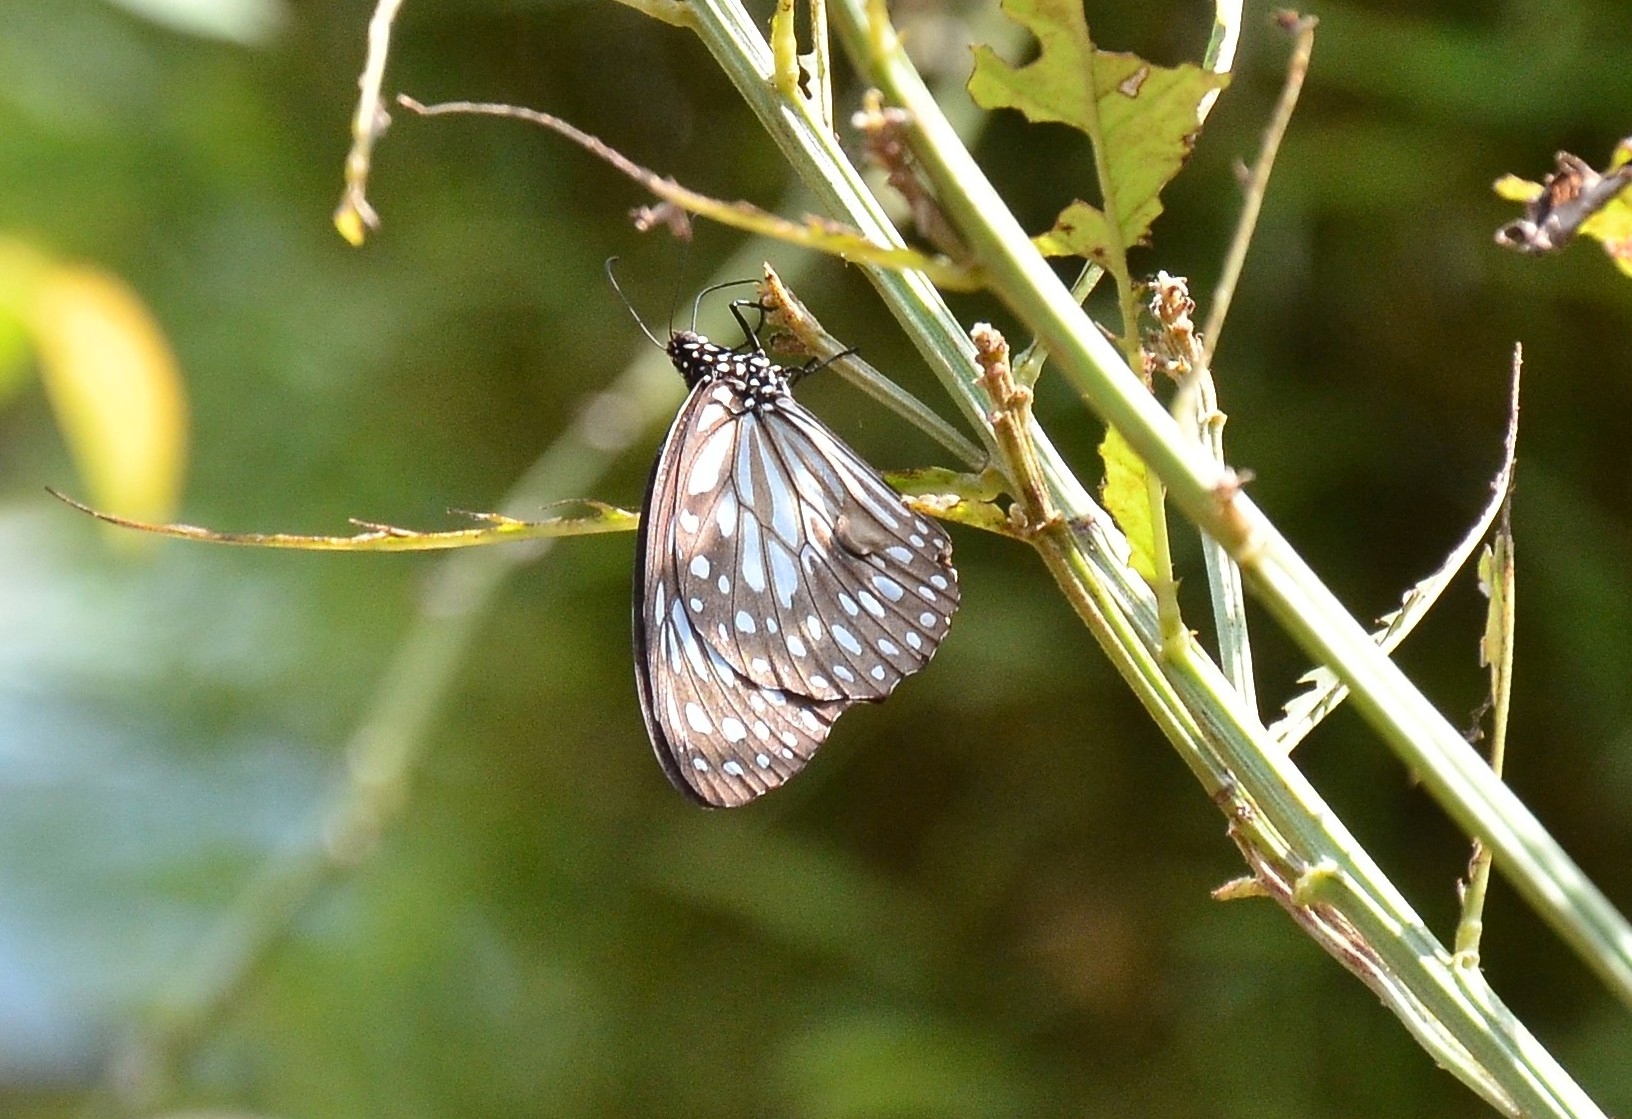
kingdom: Animalia
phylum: Arthropoda
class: Insecta
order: Lepidoptera
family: Nymphalidae
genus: Tirumala
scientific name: Tirumala septentrionis
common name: Dark blue tiger butterfly
